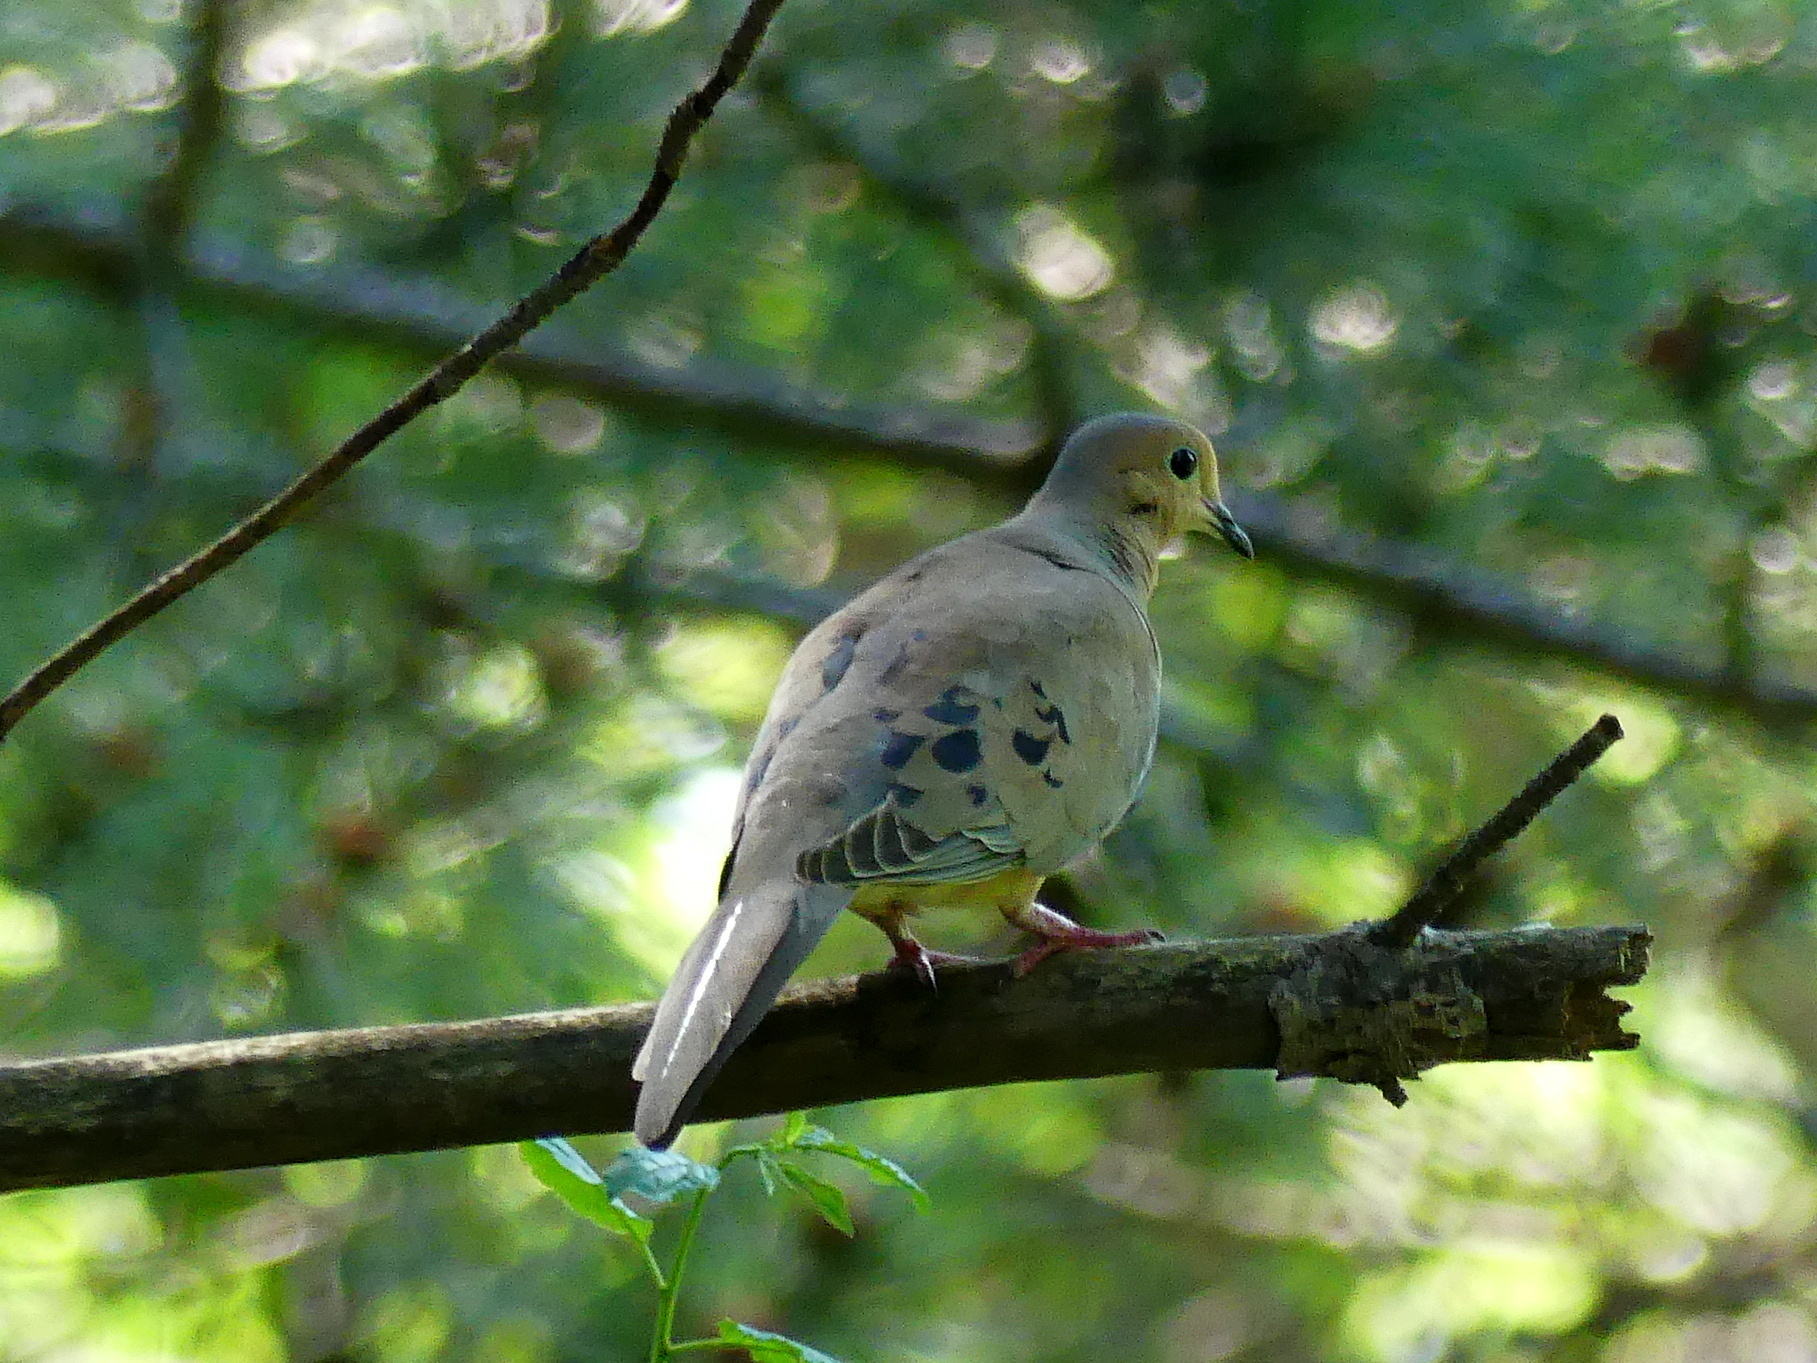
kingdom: Animalia
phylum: Chordata
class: Aves
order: Columbiformes
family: Columbidae
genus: Zenaida
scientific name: Zenaida macroura
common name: Mourning dove
